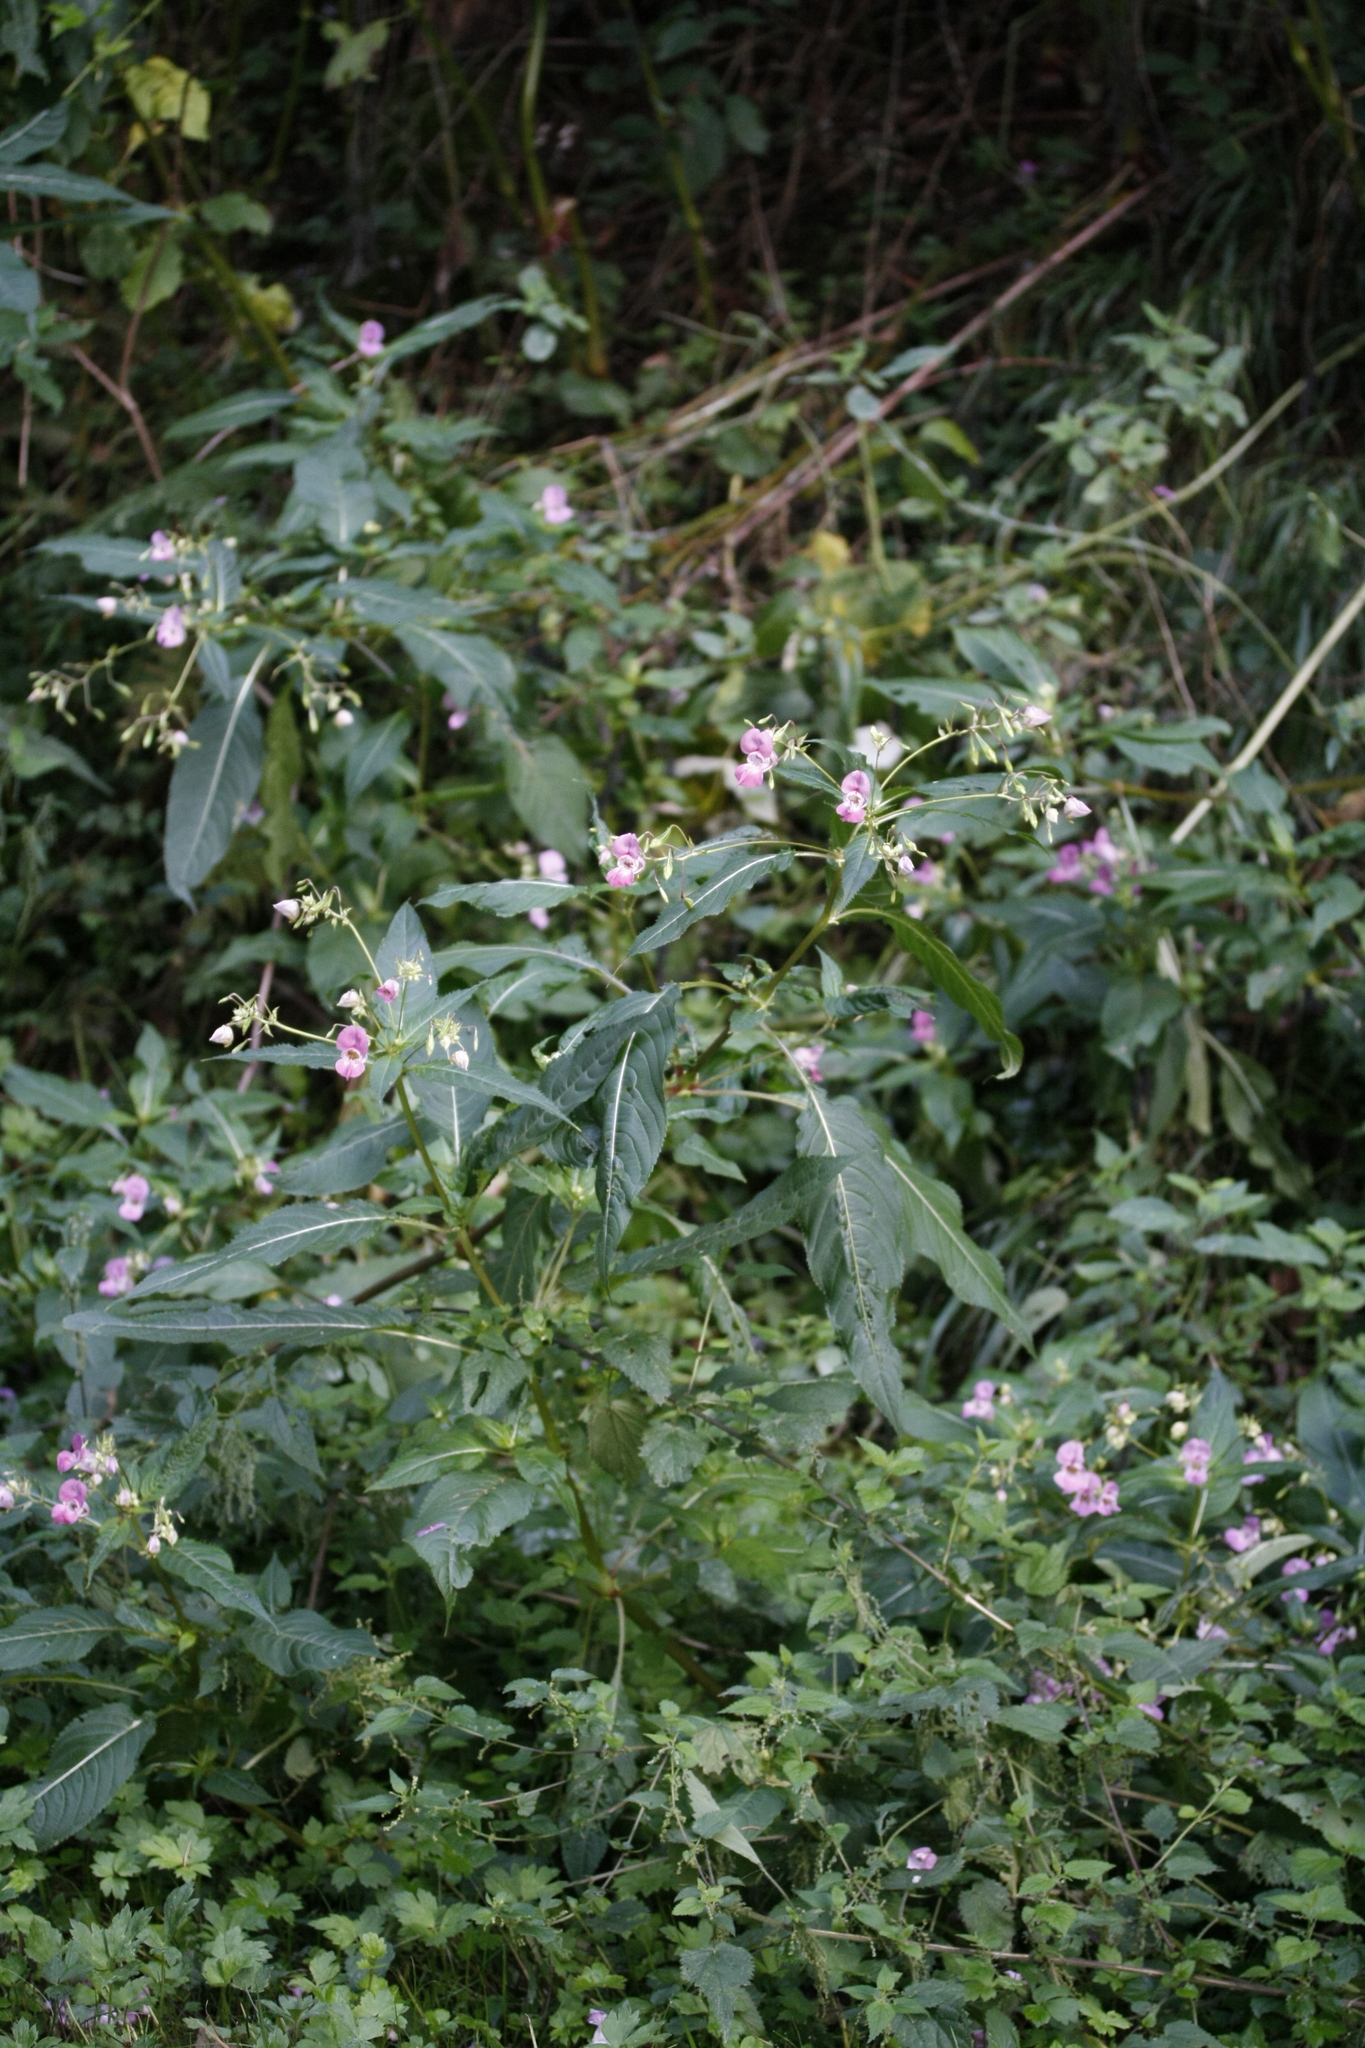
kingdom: Plantae
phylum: Tracheophyta
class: Magnoliopsida
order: Ericales
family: Balsaminaceae
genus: Impatiens
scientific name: Impatiens glandulifera
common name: Himalayan balsam
